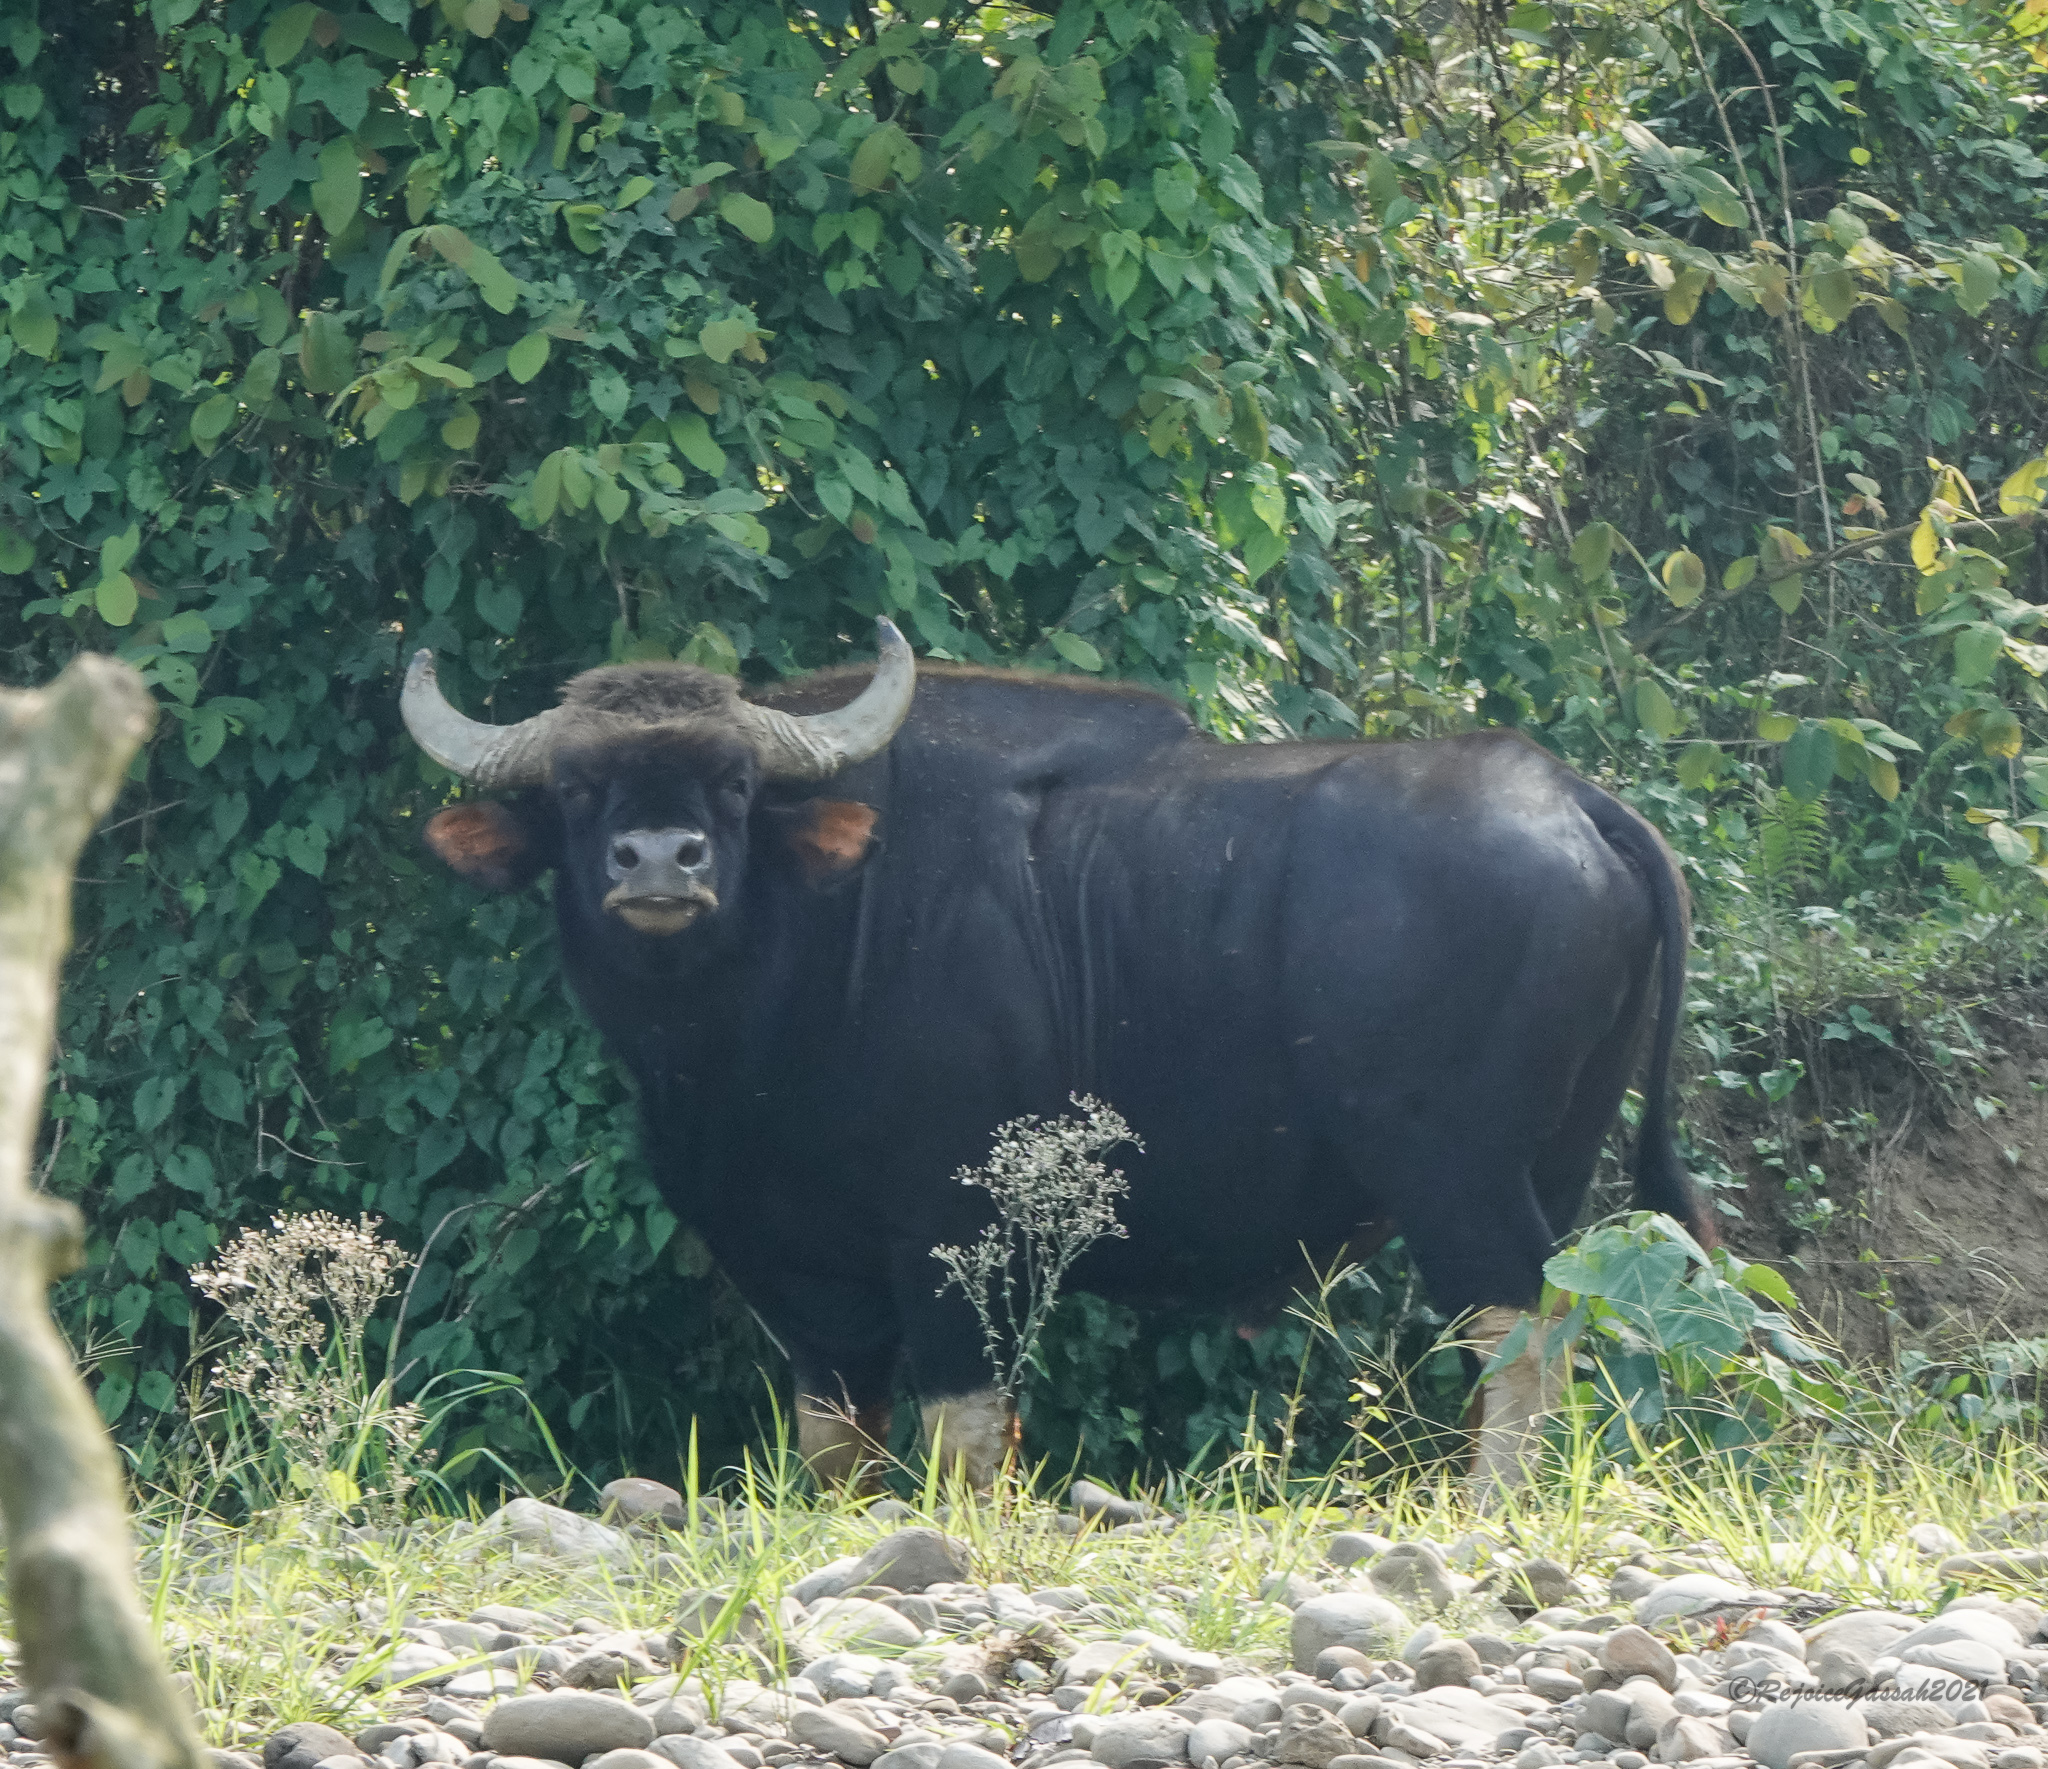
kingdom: Animalia
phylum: Chordata
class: Mammalia
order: Artiodactyla
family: Bovidae
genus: Bos
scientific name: Bos frontalis
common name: Gaur
